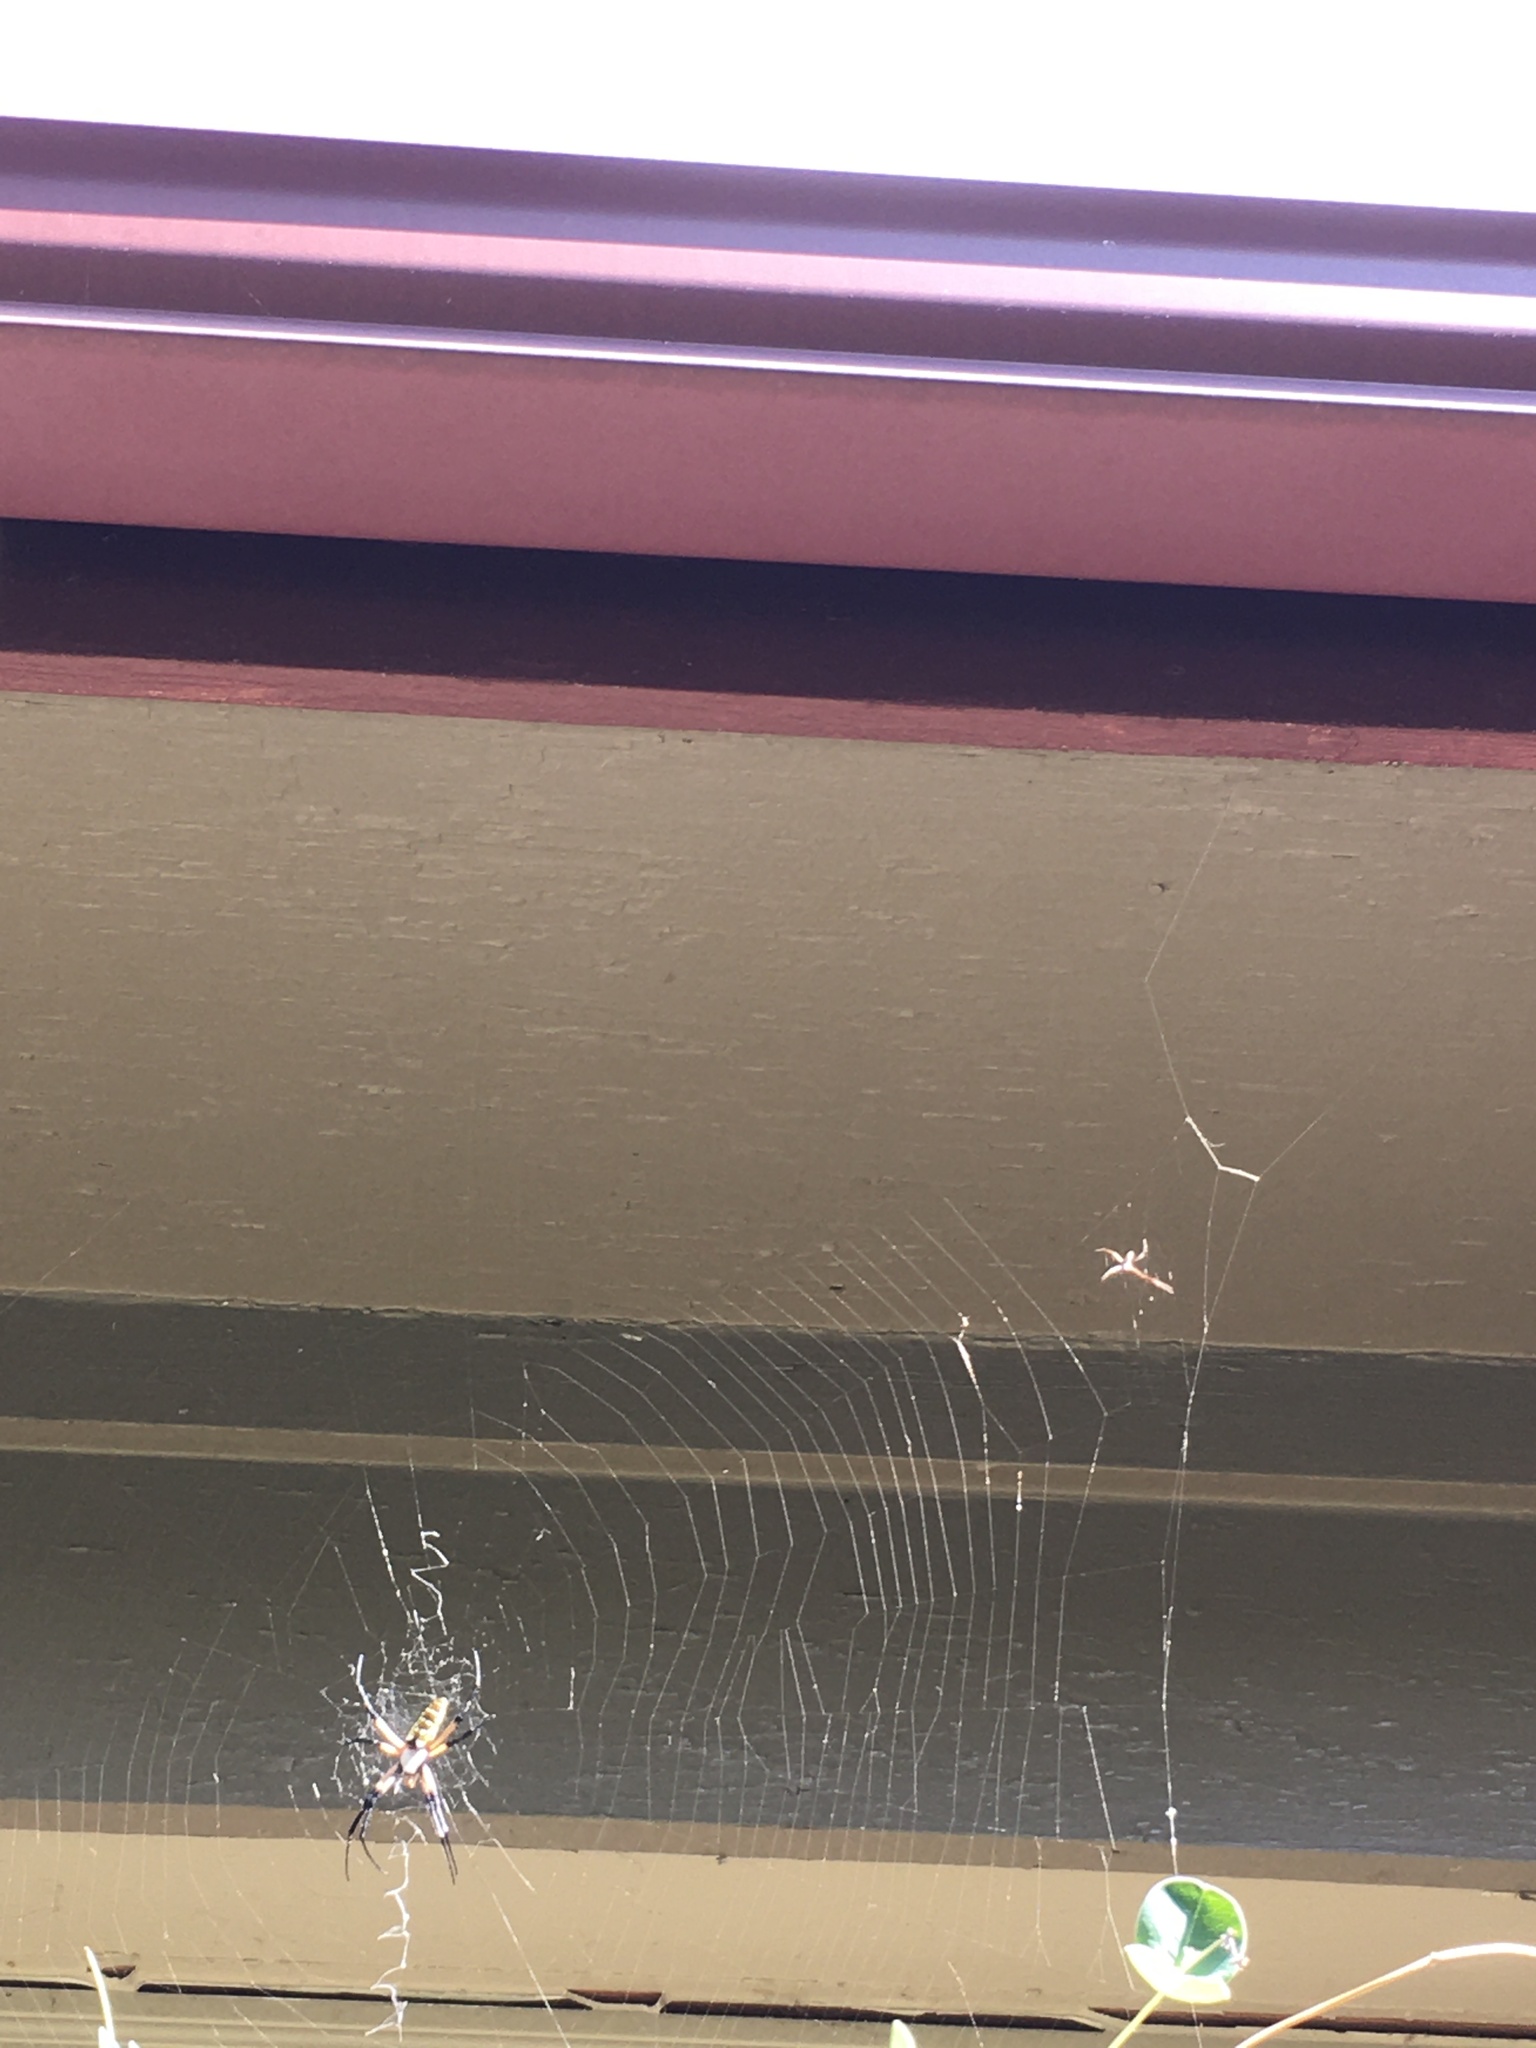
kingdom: Animalia
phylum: Arthropoda
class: Arachnida
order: Araneae
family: Araneidae
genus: Argiope
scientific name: Argiope aurantia
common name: Orb weavers
